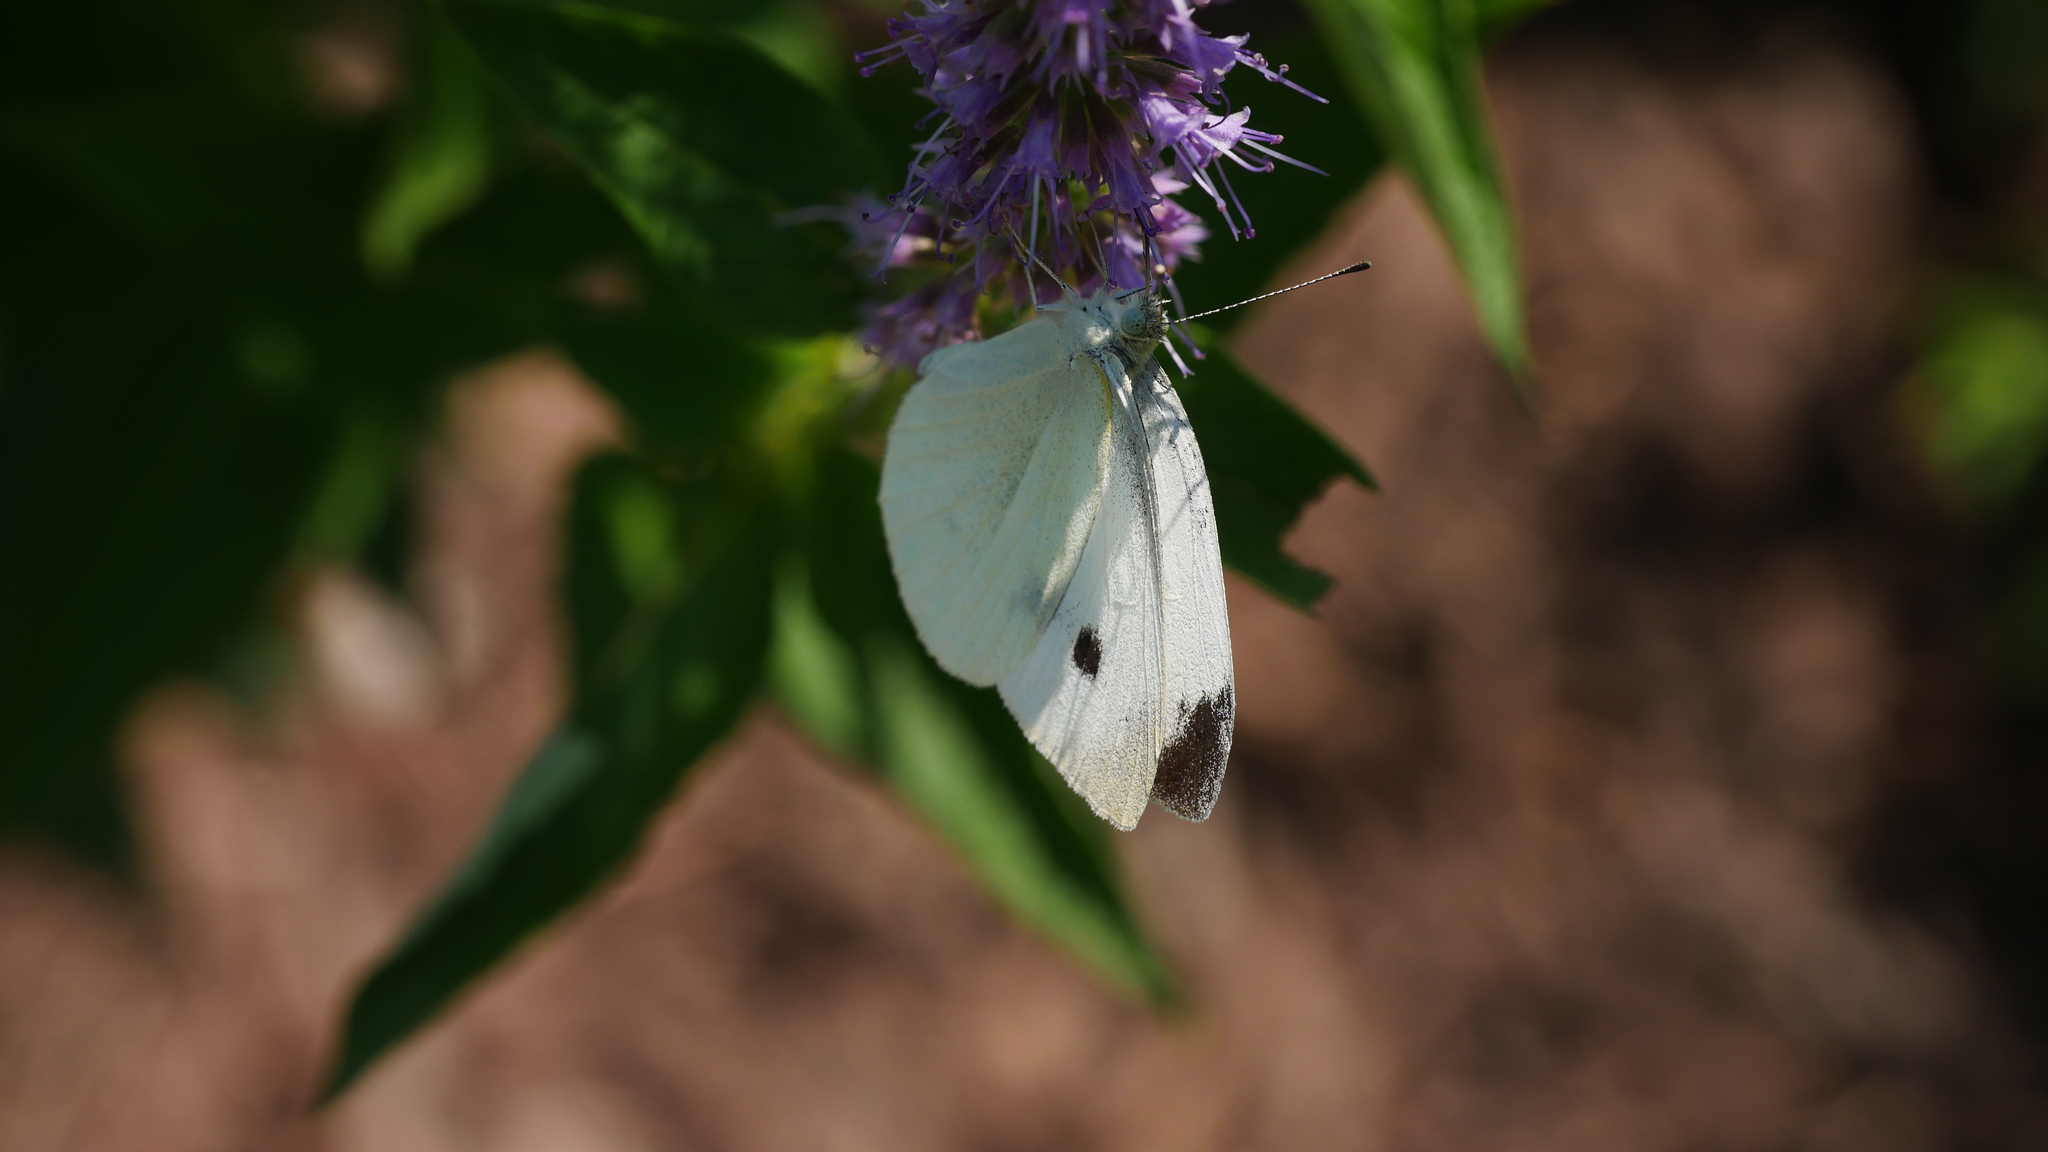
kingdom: Animalia
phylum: Arthropoda
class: Insecta
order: Lepidoptera
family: Pieridae
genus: Pieris
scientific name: Pieris rapae
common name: Small white
